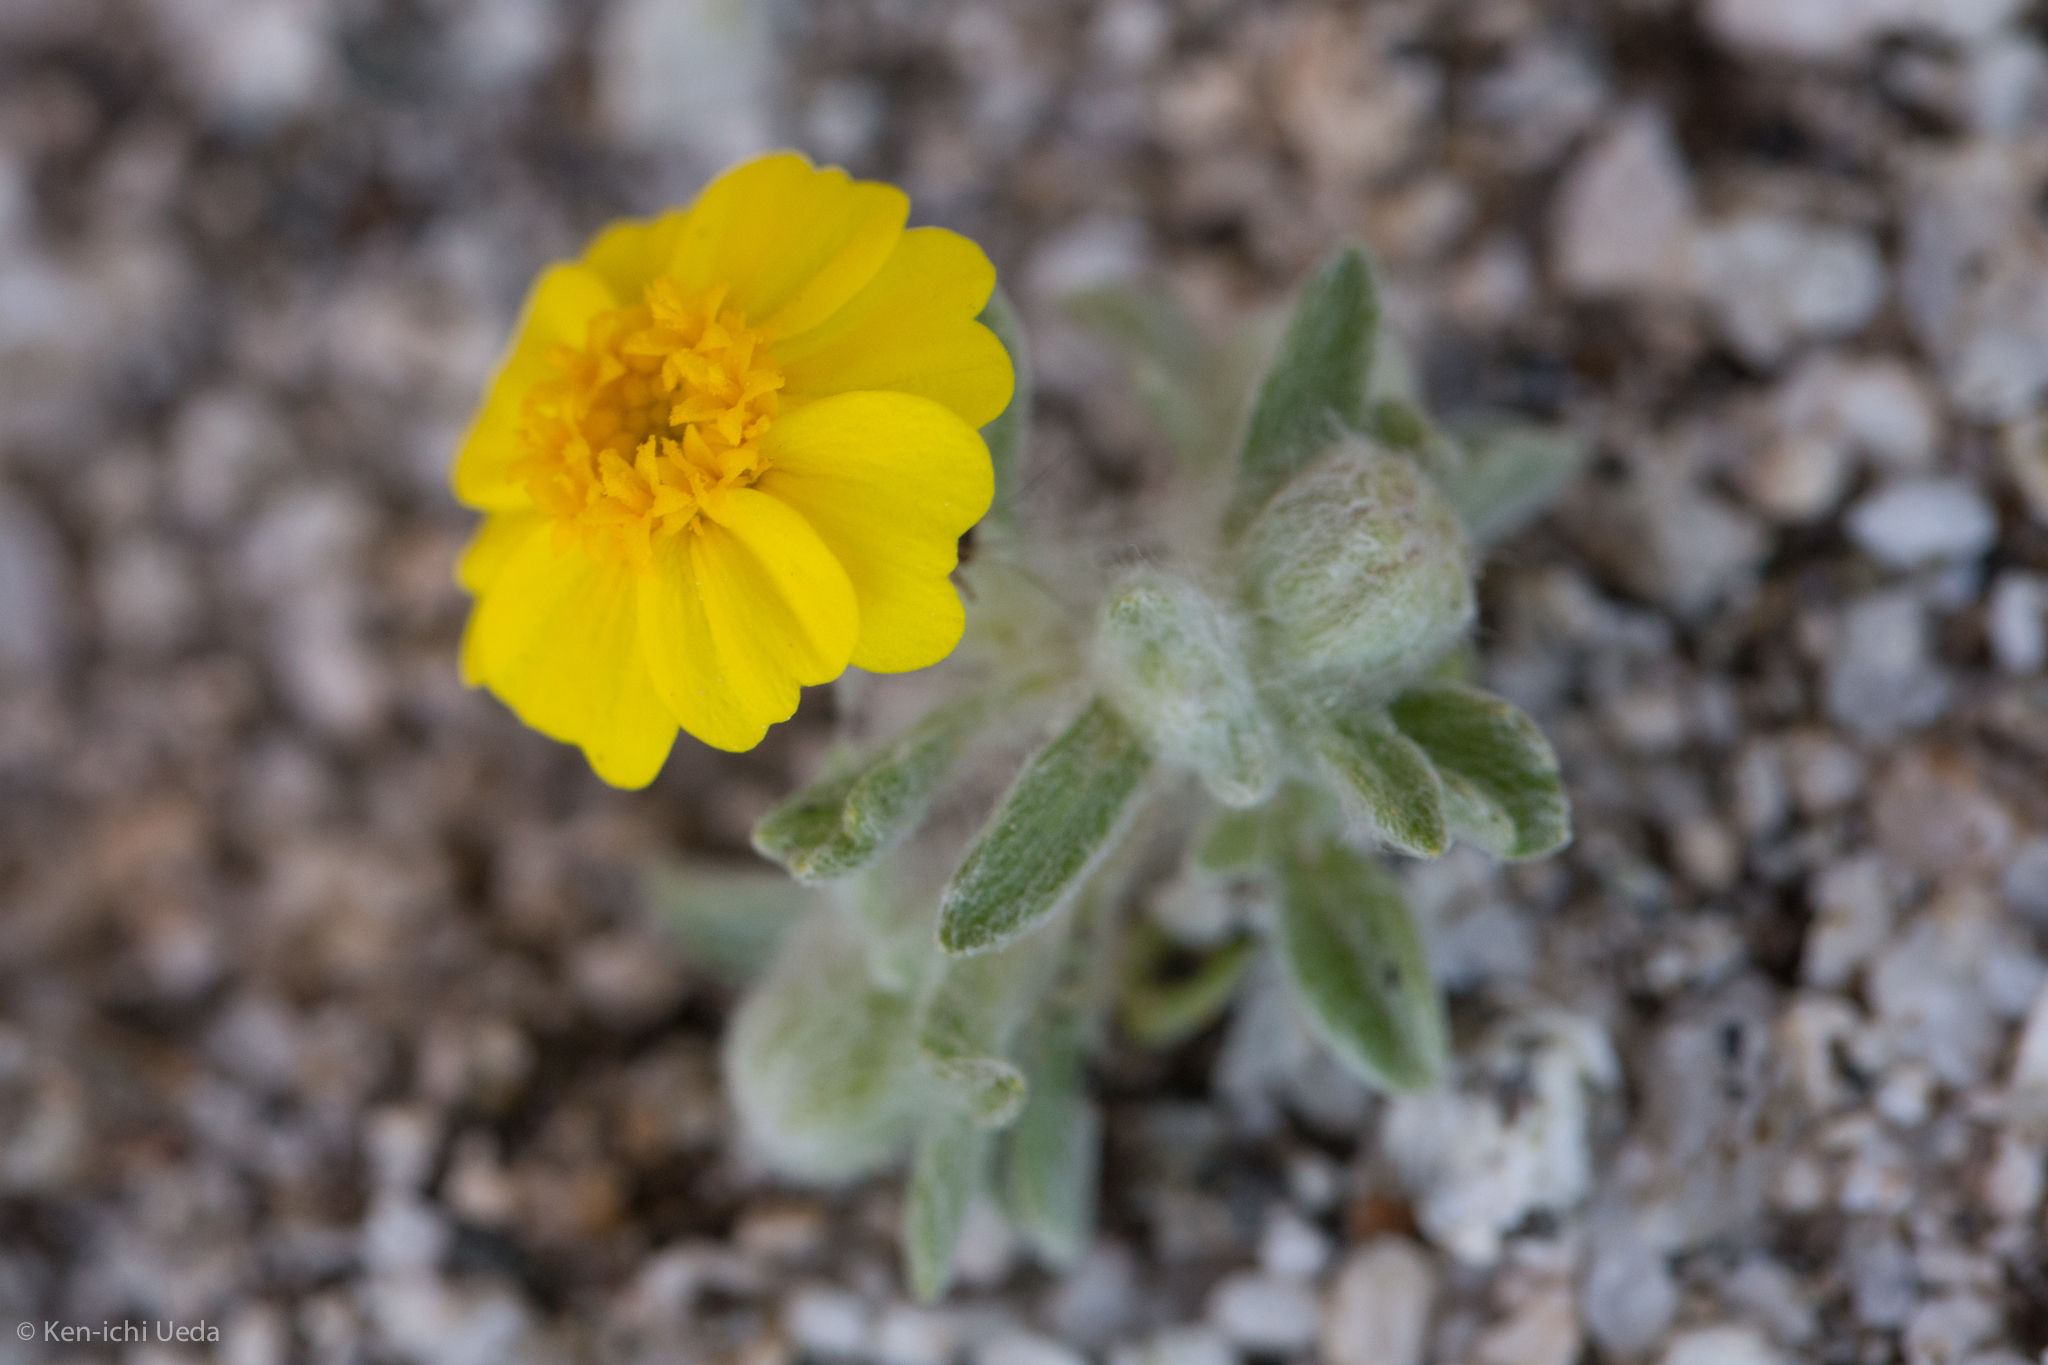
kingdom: Plantae
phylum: Tracheophyta
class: Magnoliopsida
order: Asterales
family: Asteraceae
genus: Eriophyllum
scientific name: Eriophyllum wallacei
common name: Wallace's woolly daisy
